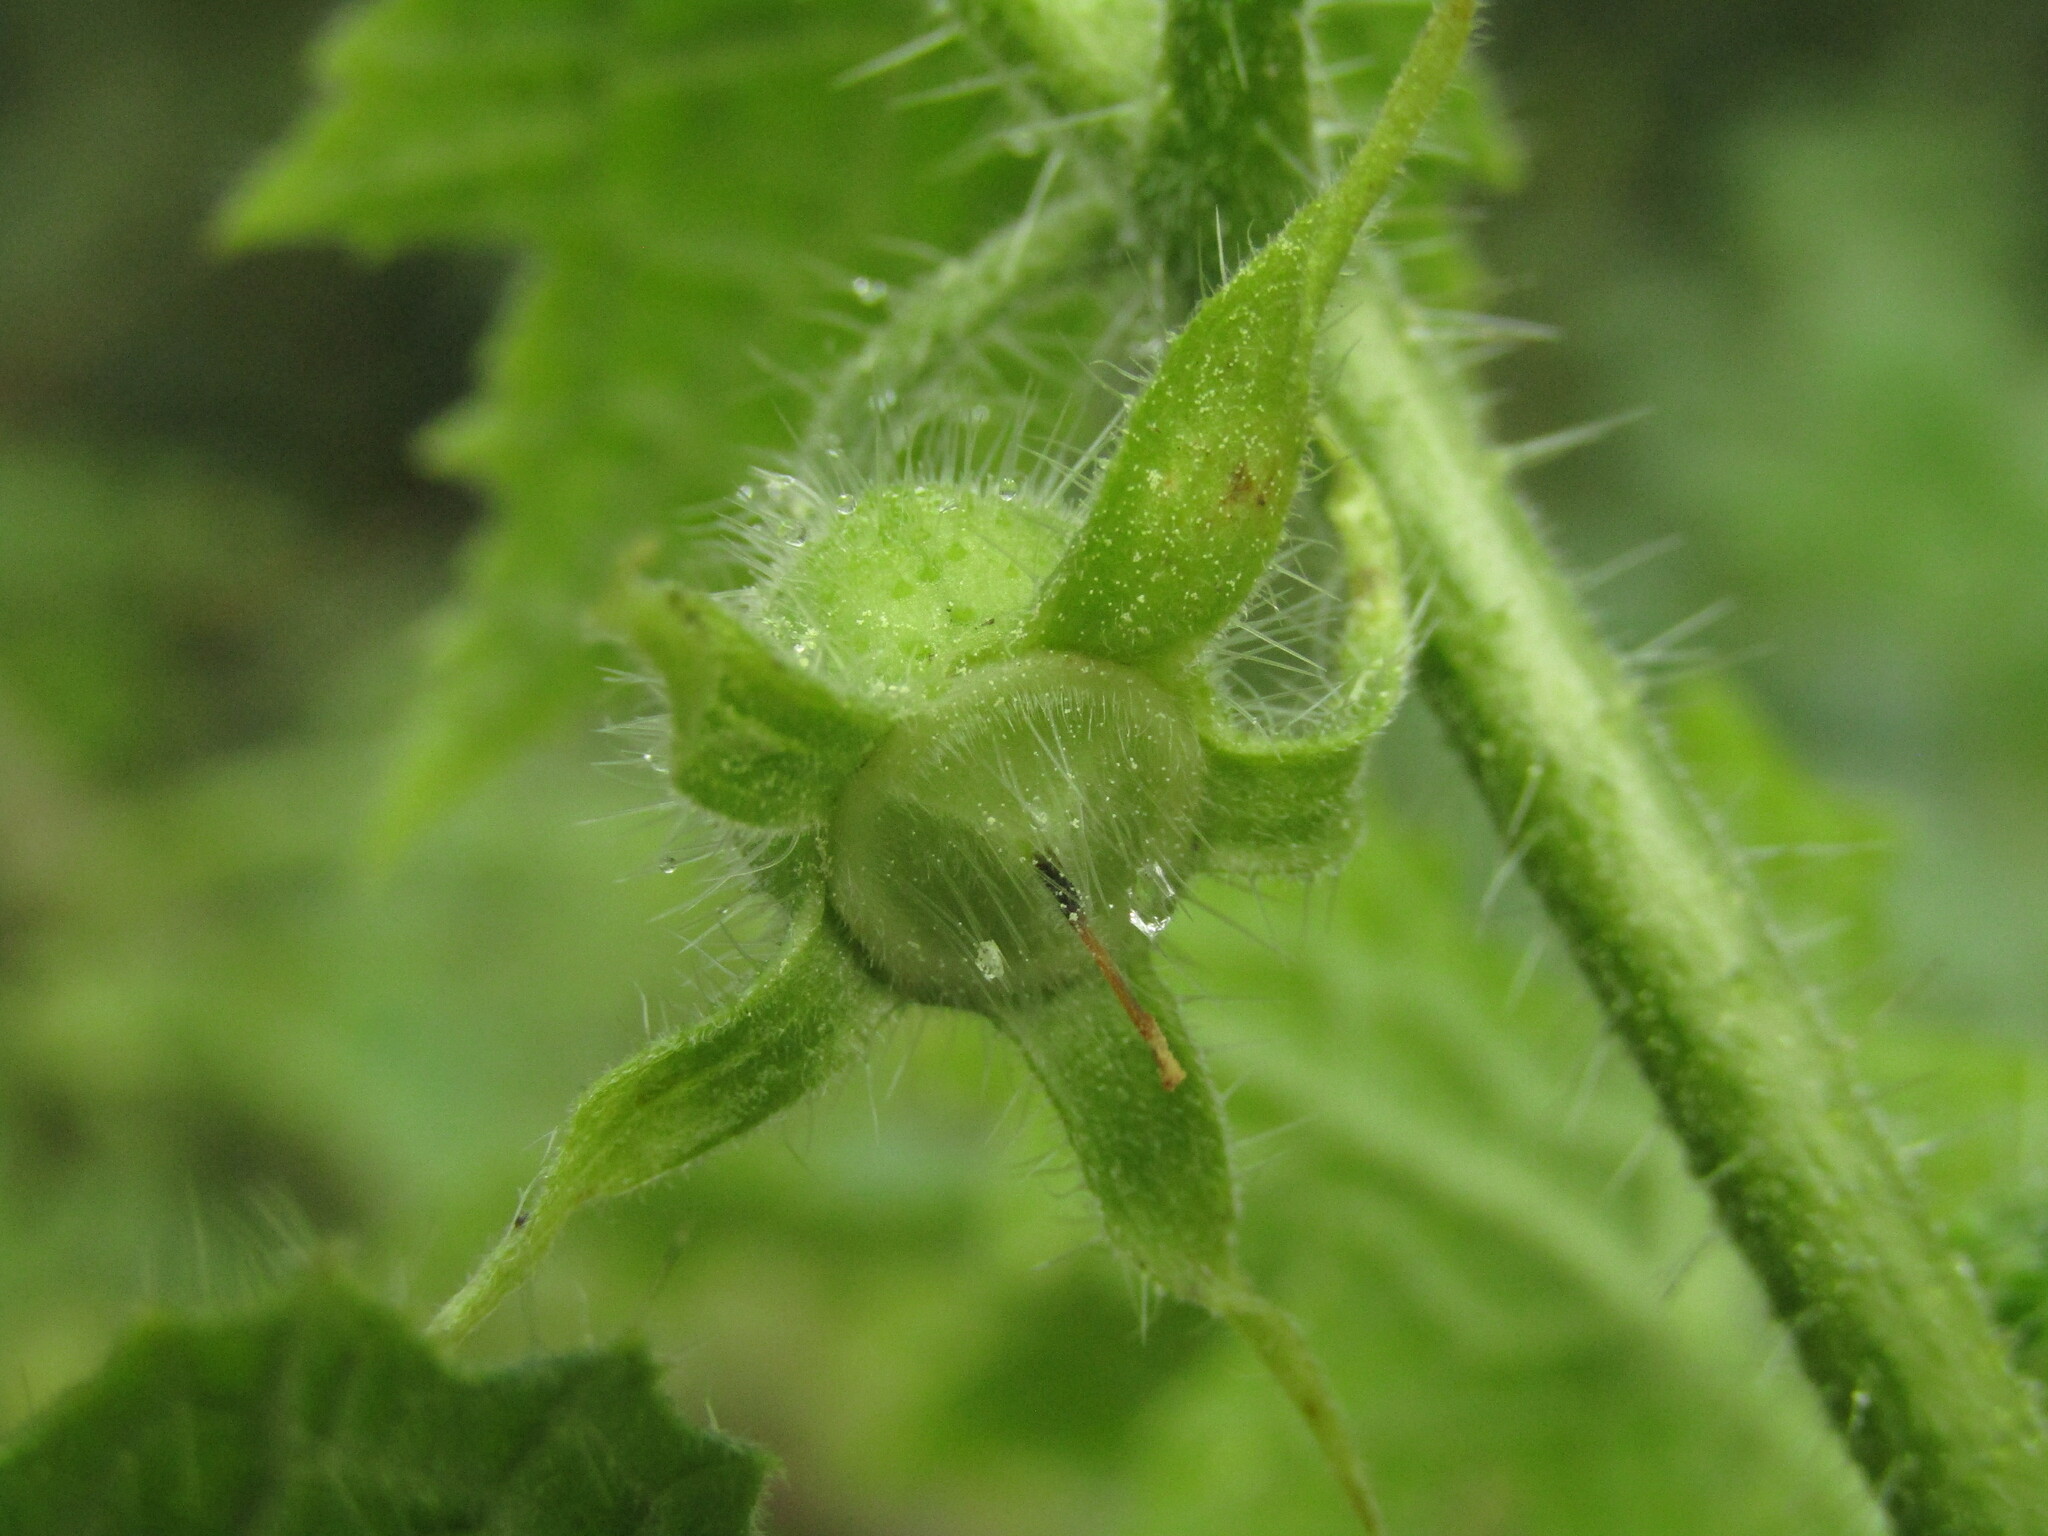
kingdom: Plantae
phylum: Tracheophyta
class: Magnoliopsida
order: Cornales
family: Loasaceae
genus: Loasa
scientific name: Loasa acerifolia
